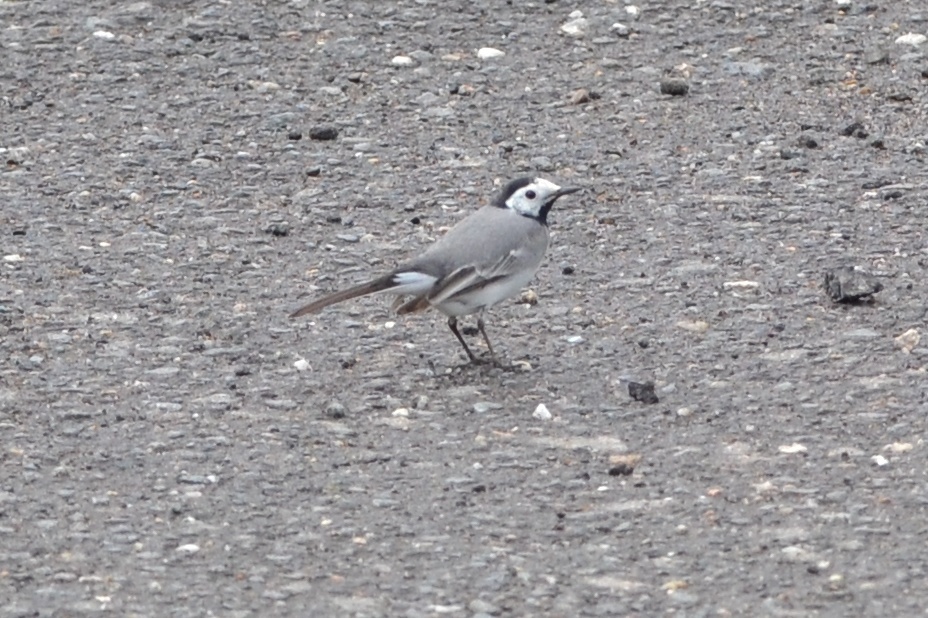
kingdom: Animalia
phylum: Chordata
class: Aves
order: Passeriformes
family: Motacillidae
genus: Motacilla
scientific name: Motacilla alba
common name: White wagtail
